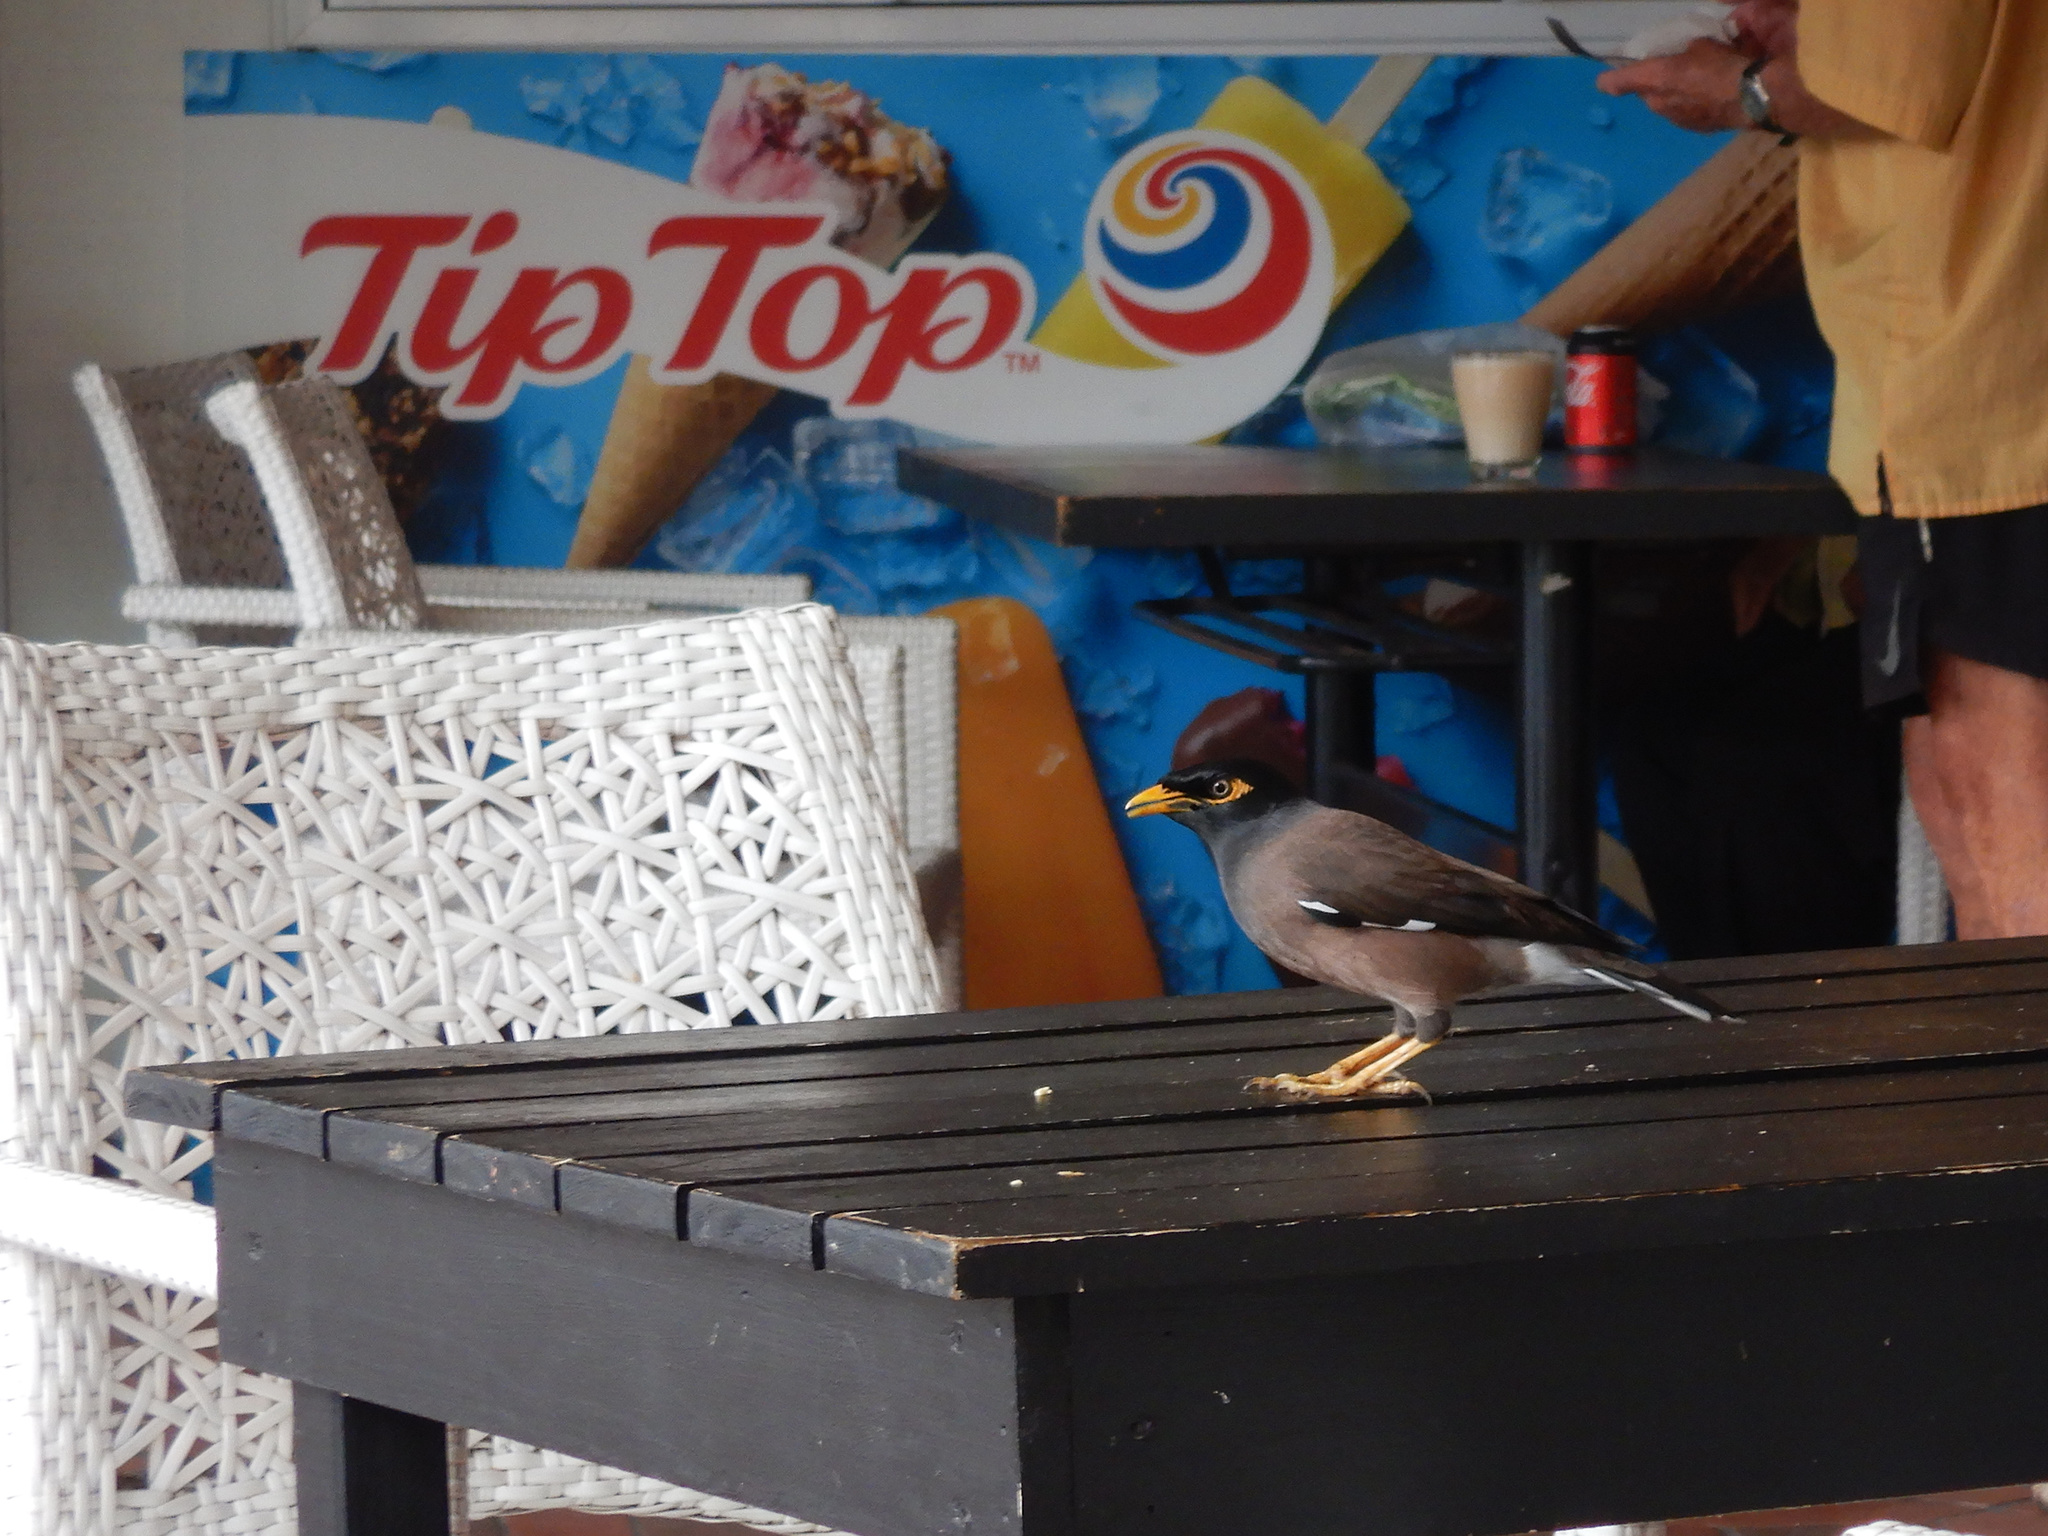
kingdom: Animalia
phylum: Chordata
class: Aves
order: Passeriformes
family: Sturnidae
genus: Acridotheres
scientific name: Acridotheres tristis
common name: Common myna
